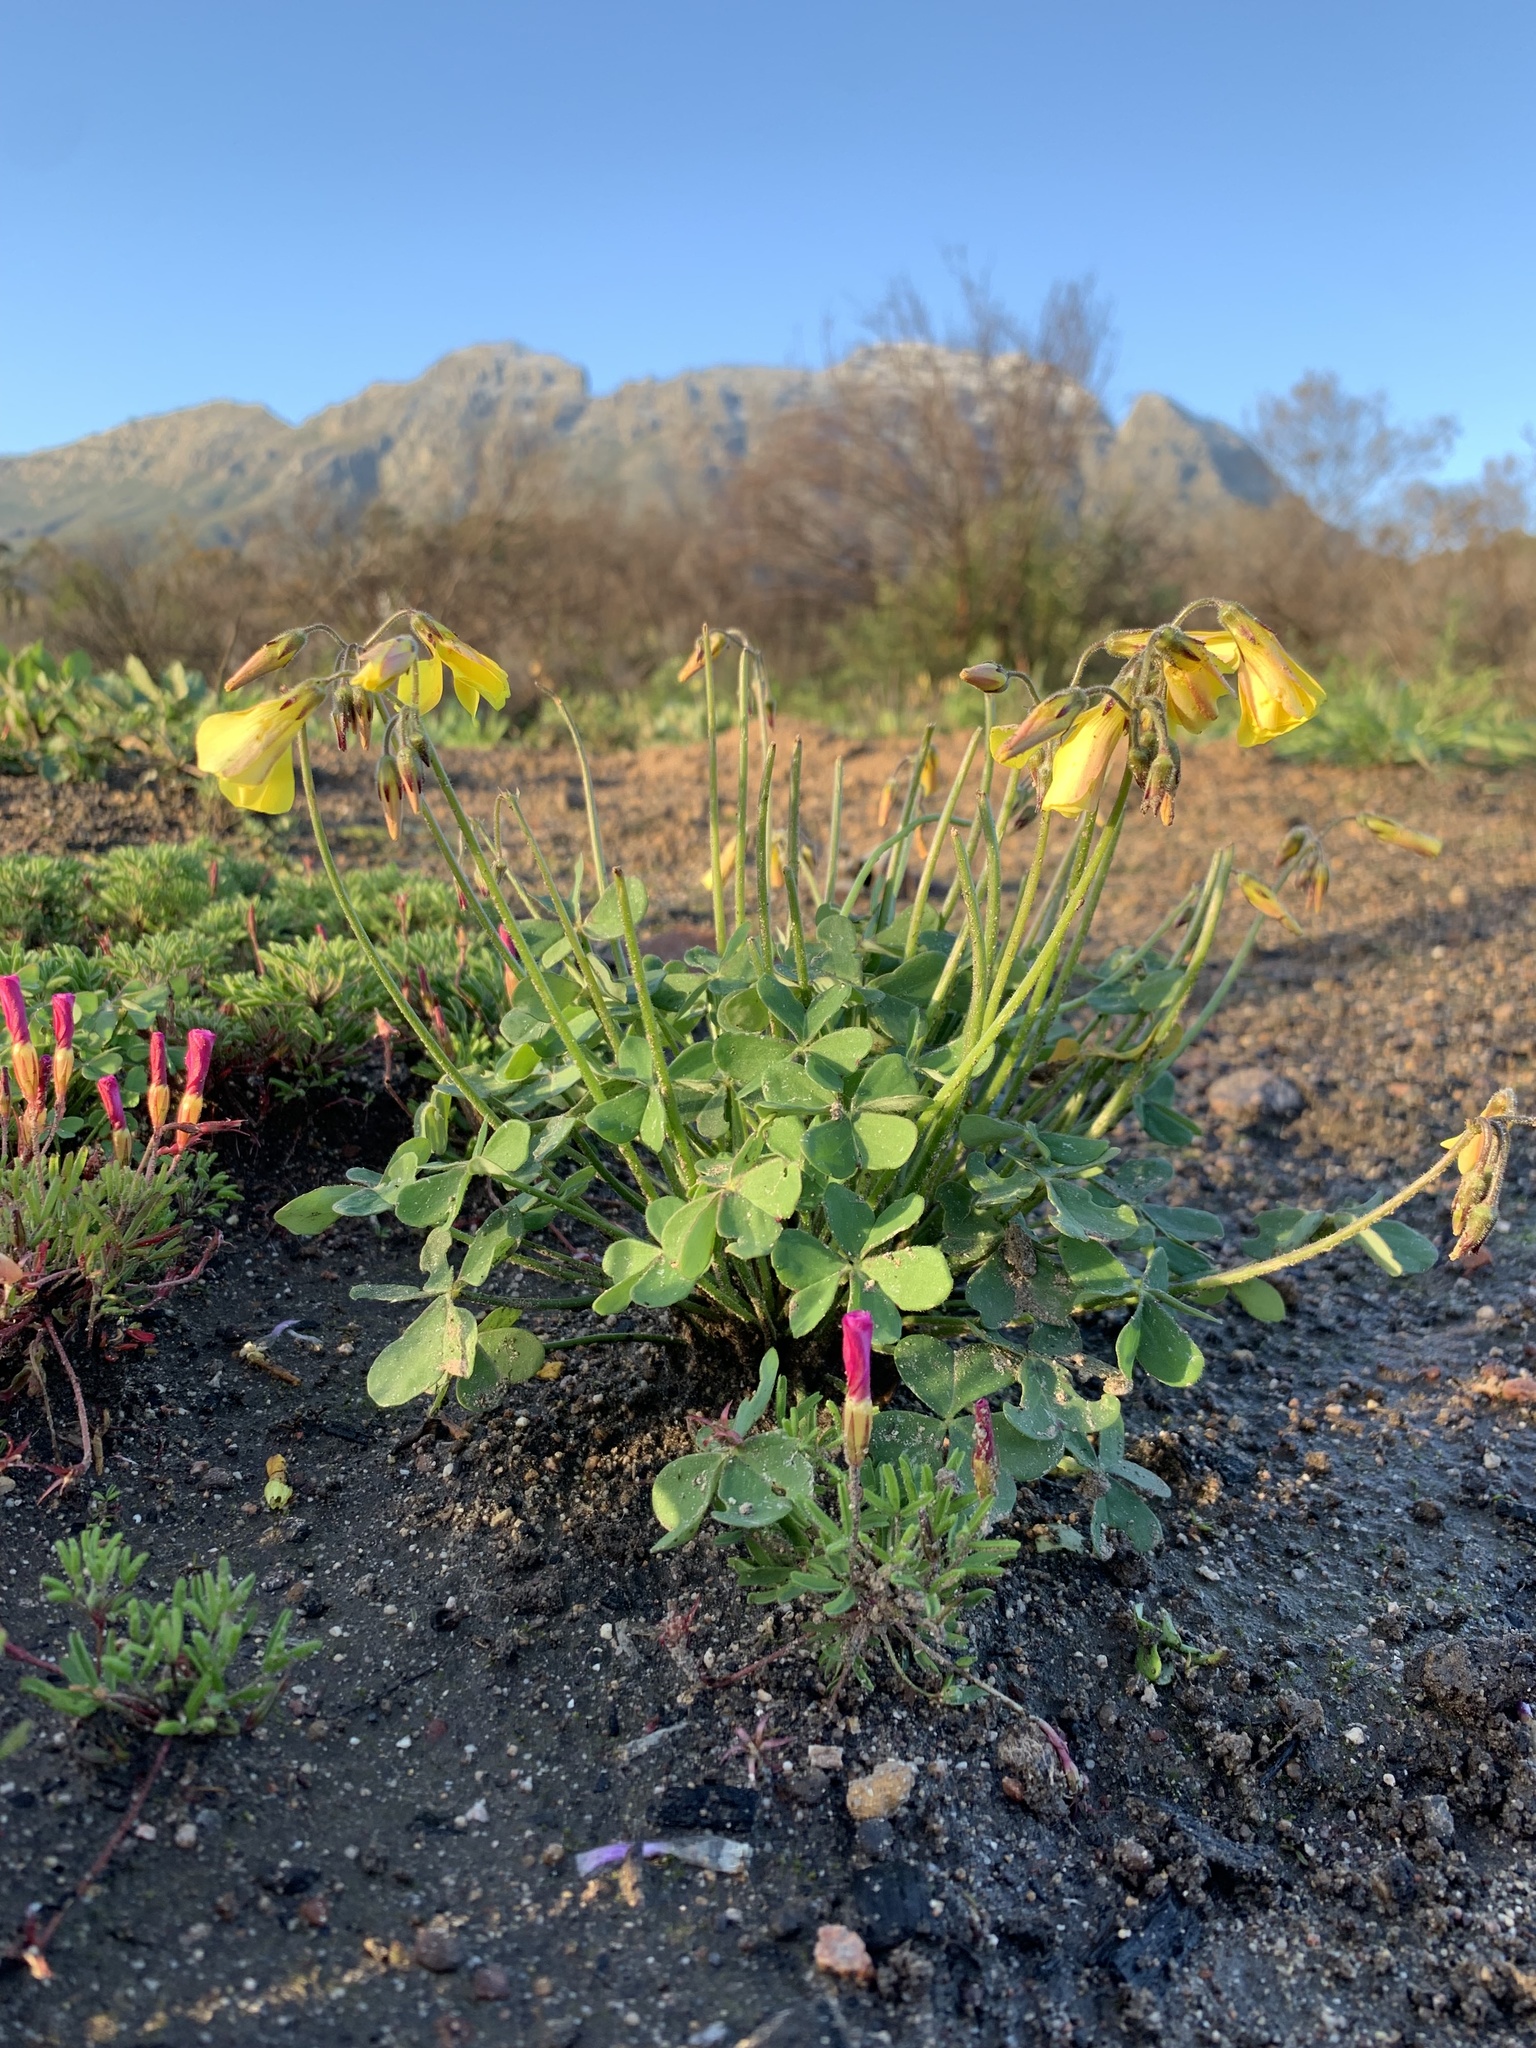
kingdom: Plantae
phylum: Tracheophyta
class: Magnoliopsida
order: Oxalidales
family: Oxalidaceae
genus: Oxalis
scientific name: Oxalis pes-caprae
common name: Bermuda-buttercup
